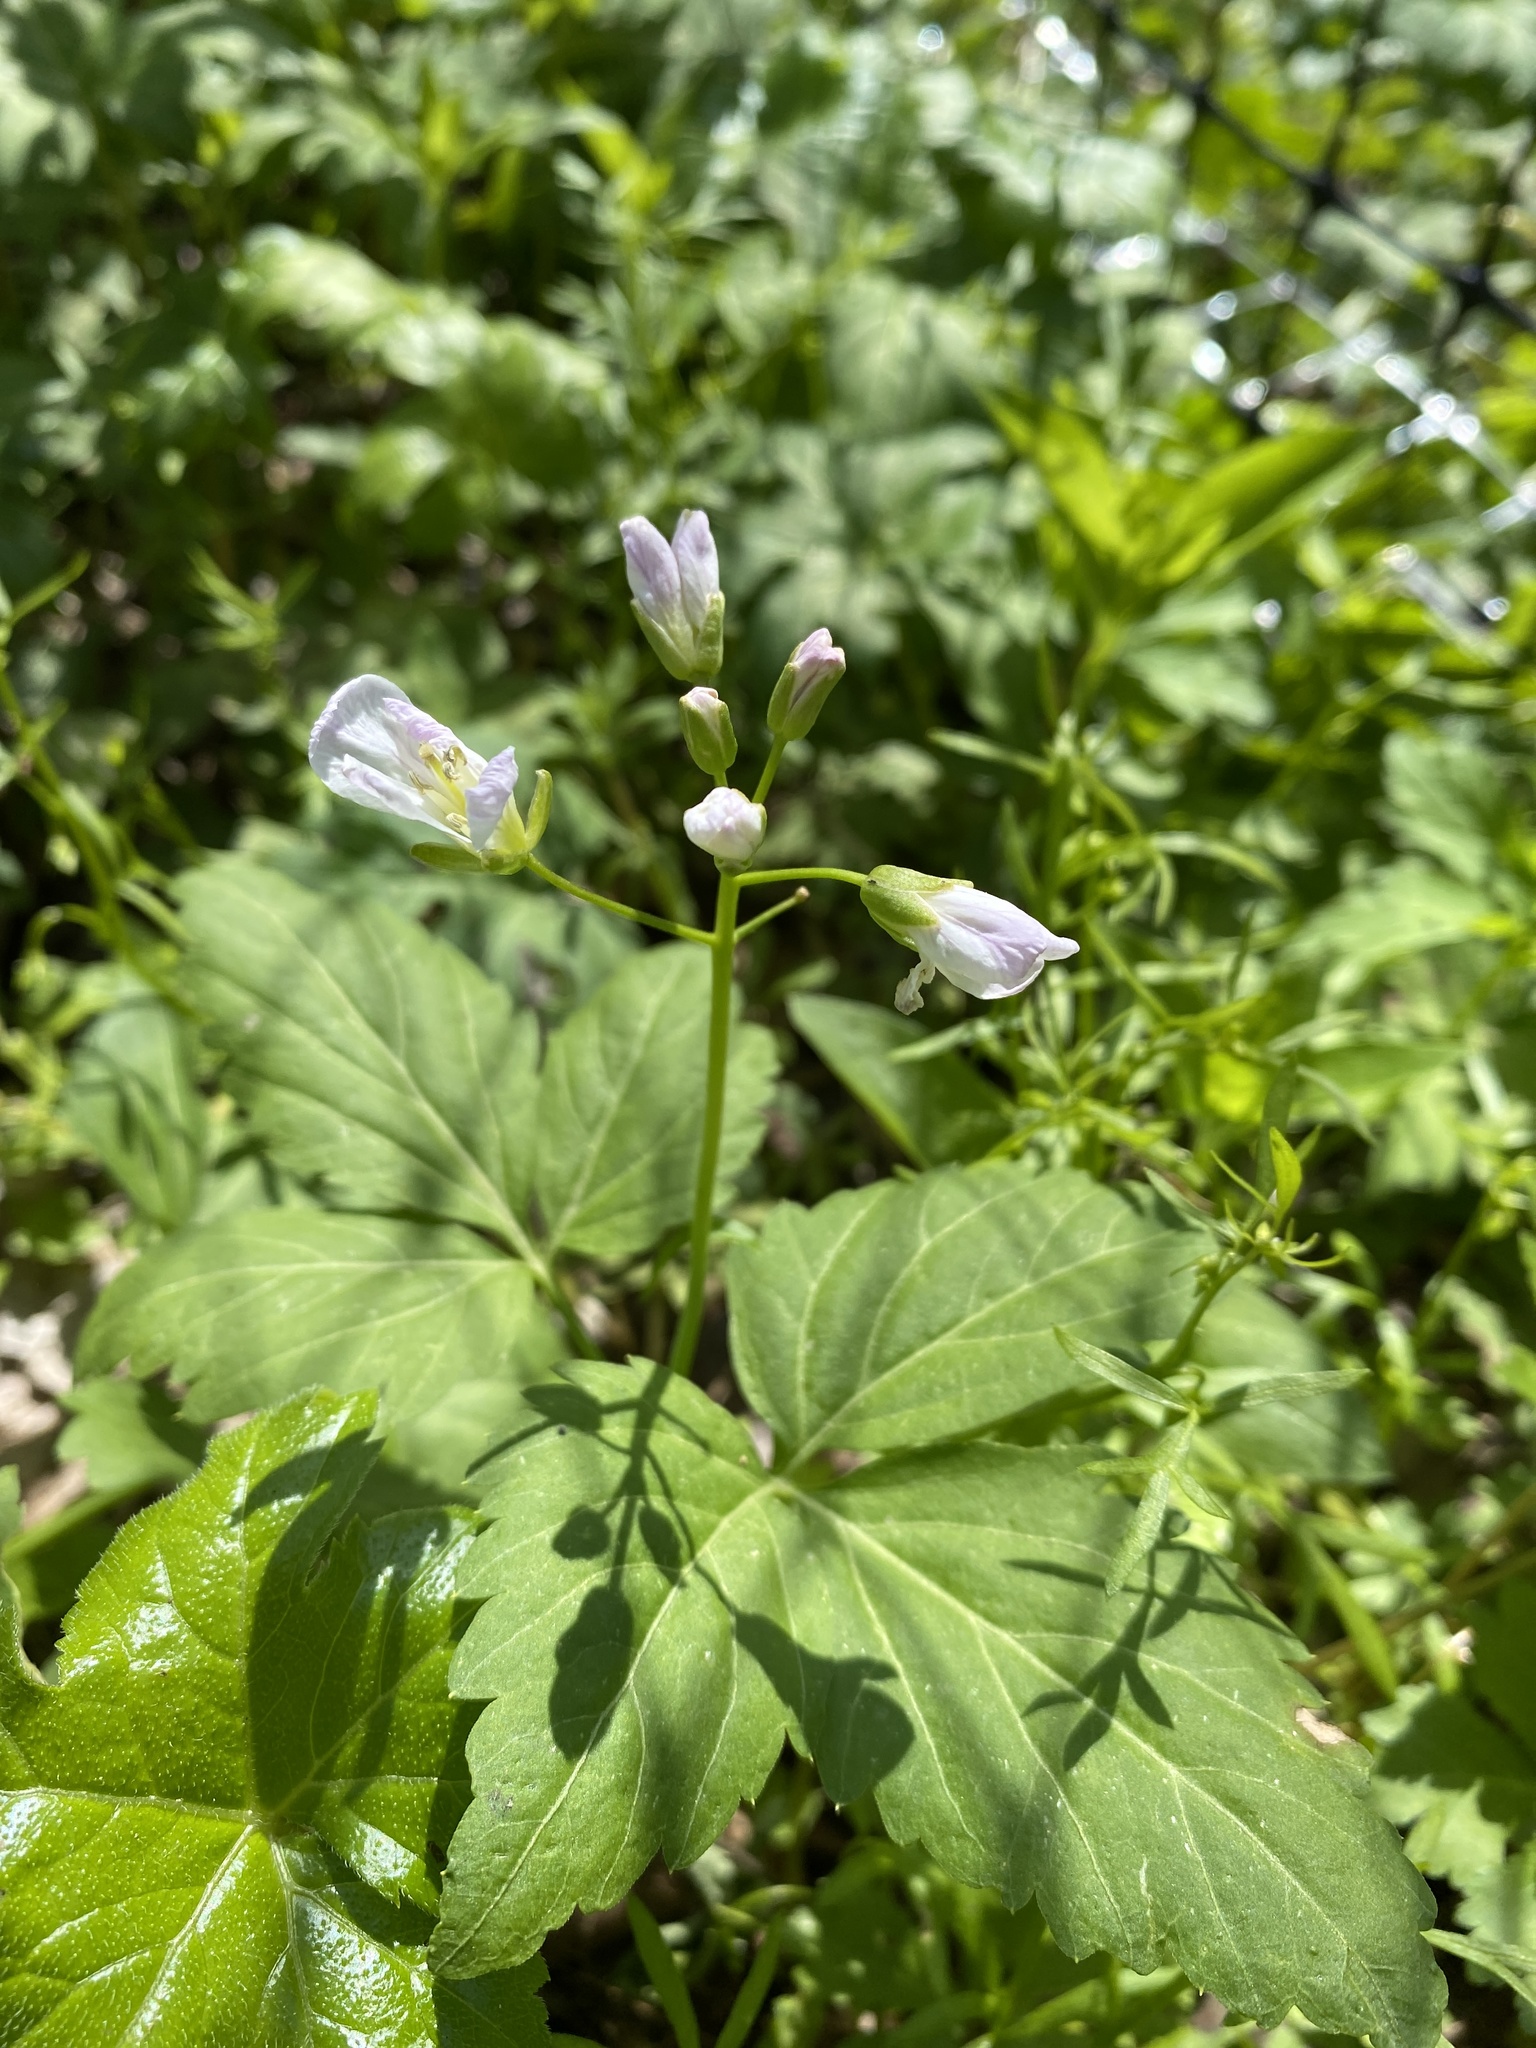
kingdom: Plantae
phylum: Tracheophyta
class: Magnoliopsida
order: Brassicales
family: Brassicaceae
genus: Cardamine
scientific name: Cardamine diphylla
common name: Broad-leaved toothwort
